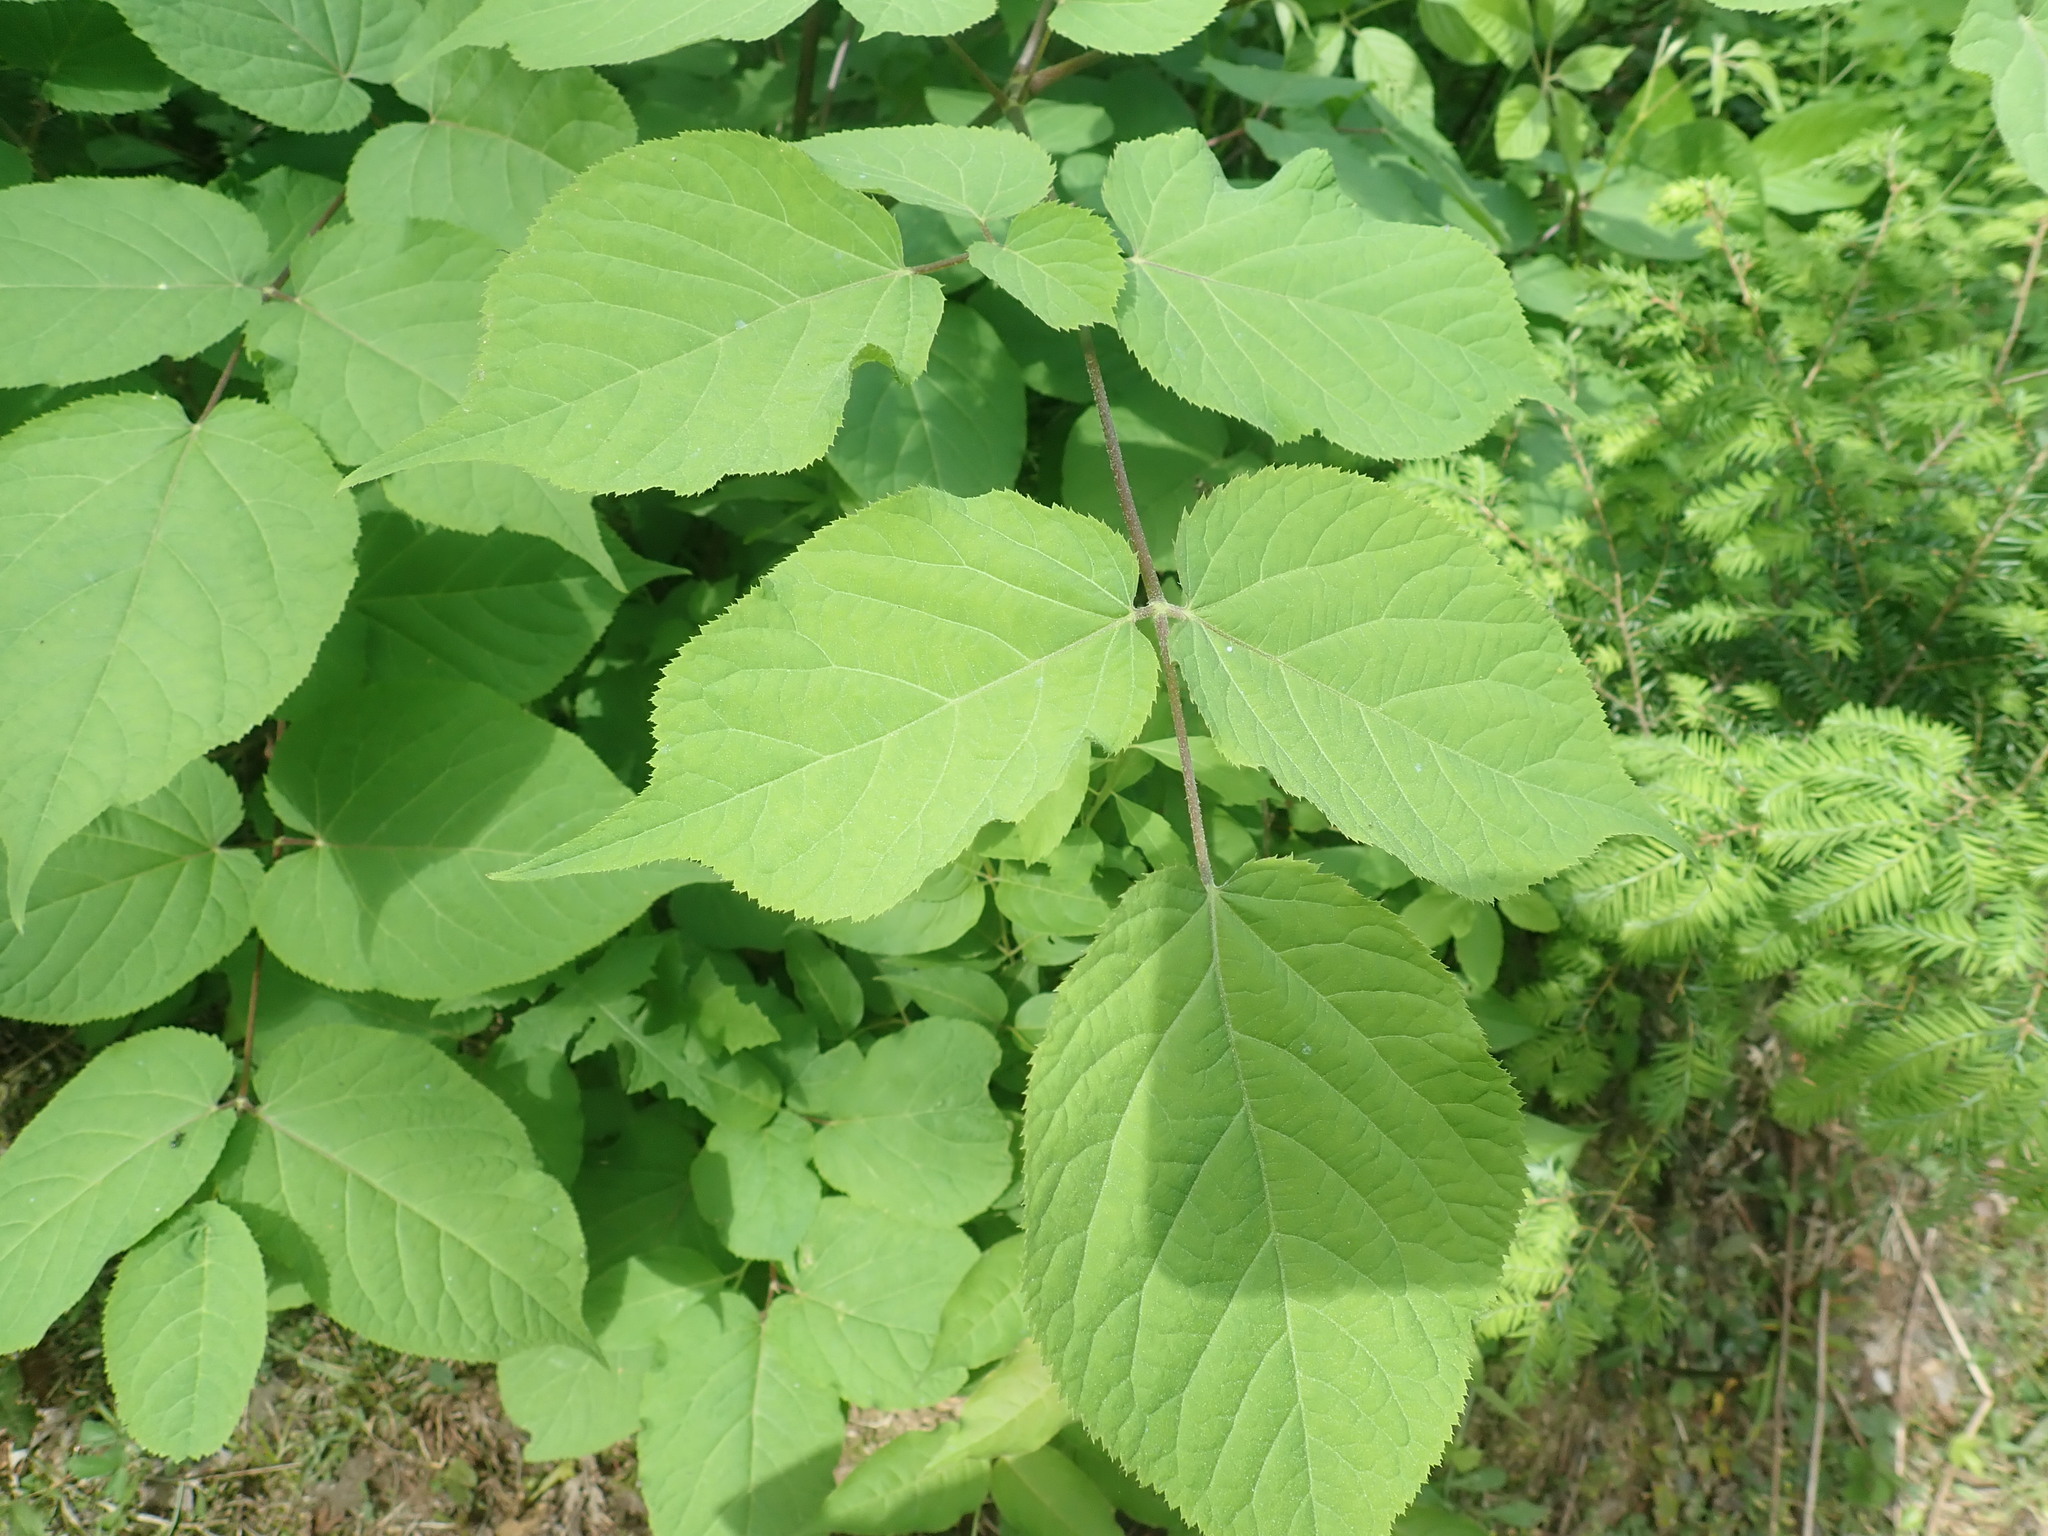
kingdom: Plantae
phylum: Tracheophyta
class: Magnoliopsida
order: Apiales
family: Araliaceae
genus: Aralia
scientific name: Aralia racemosa
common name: American-spikenard
